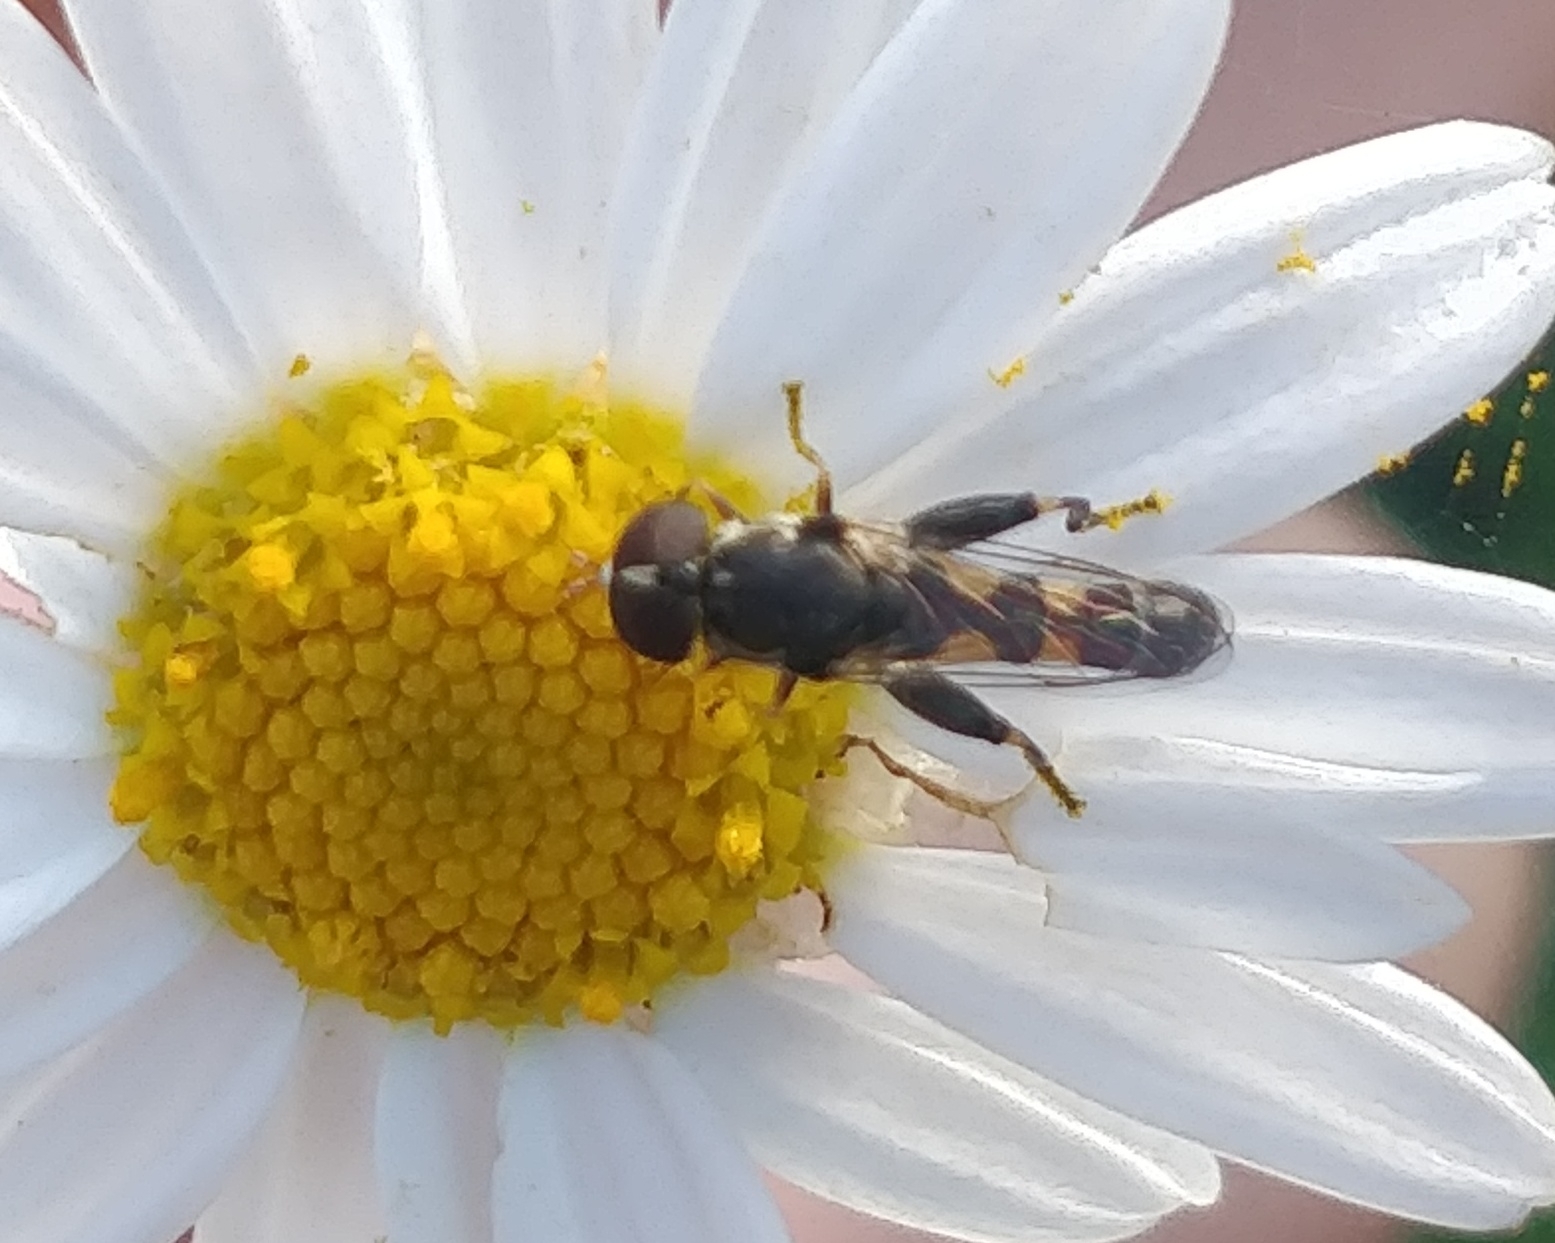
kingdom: Animalia
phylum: Arthropoda
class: Insecta
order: Diptera
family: Syrphidae
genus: Syritta
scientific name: Syritta pipiens
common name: Hover fly
